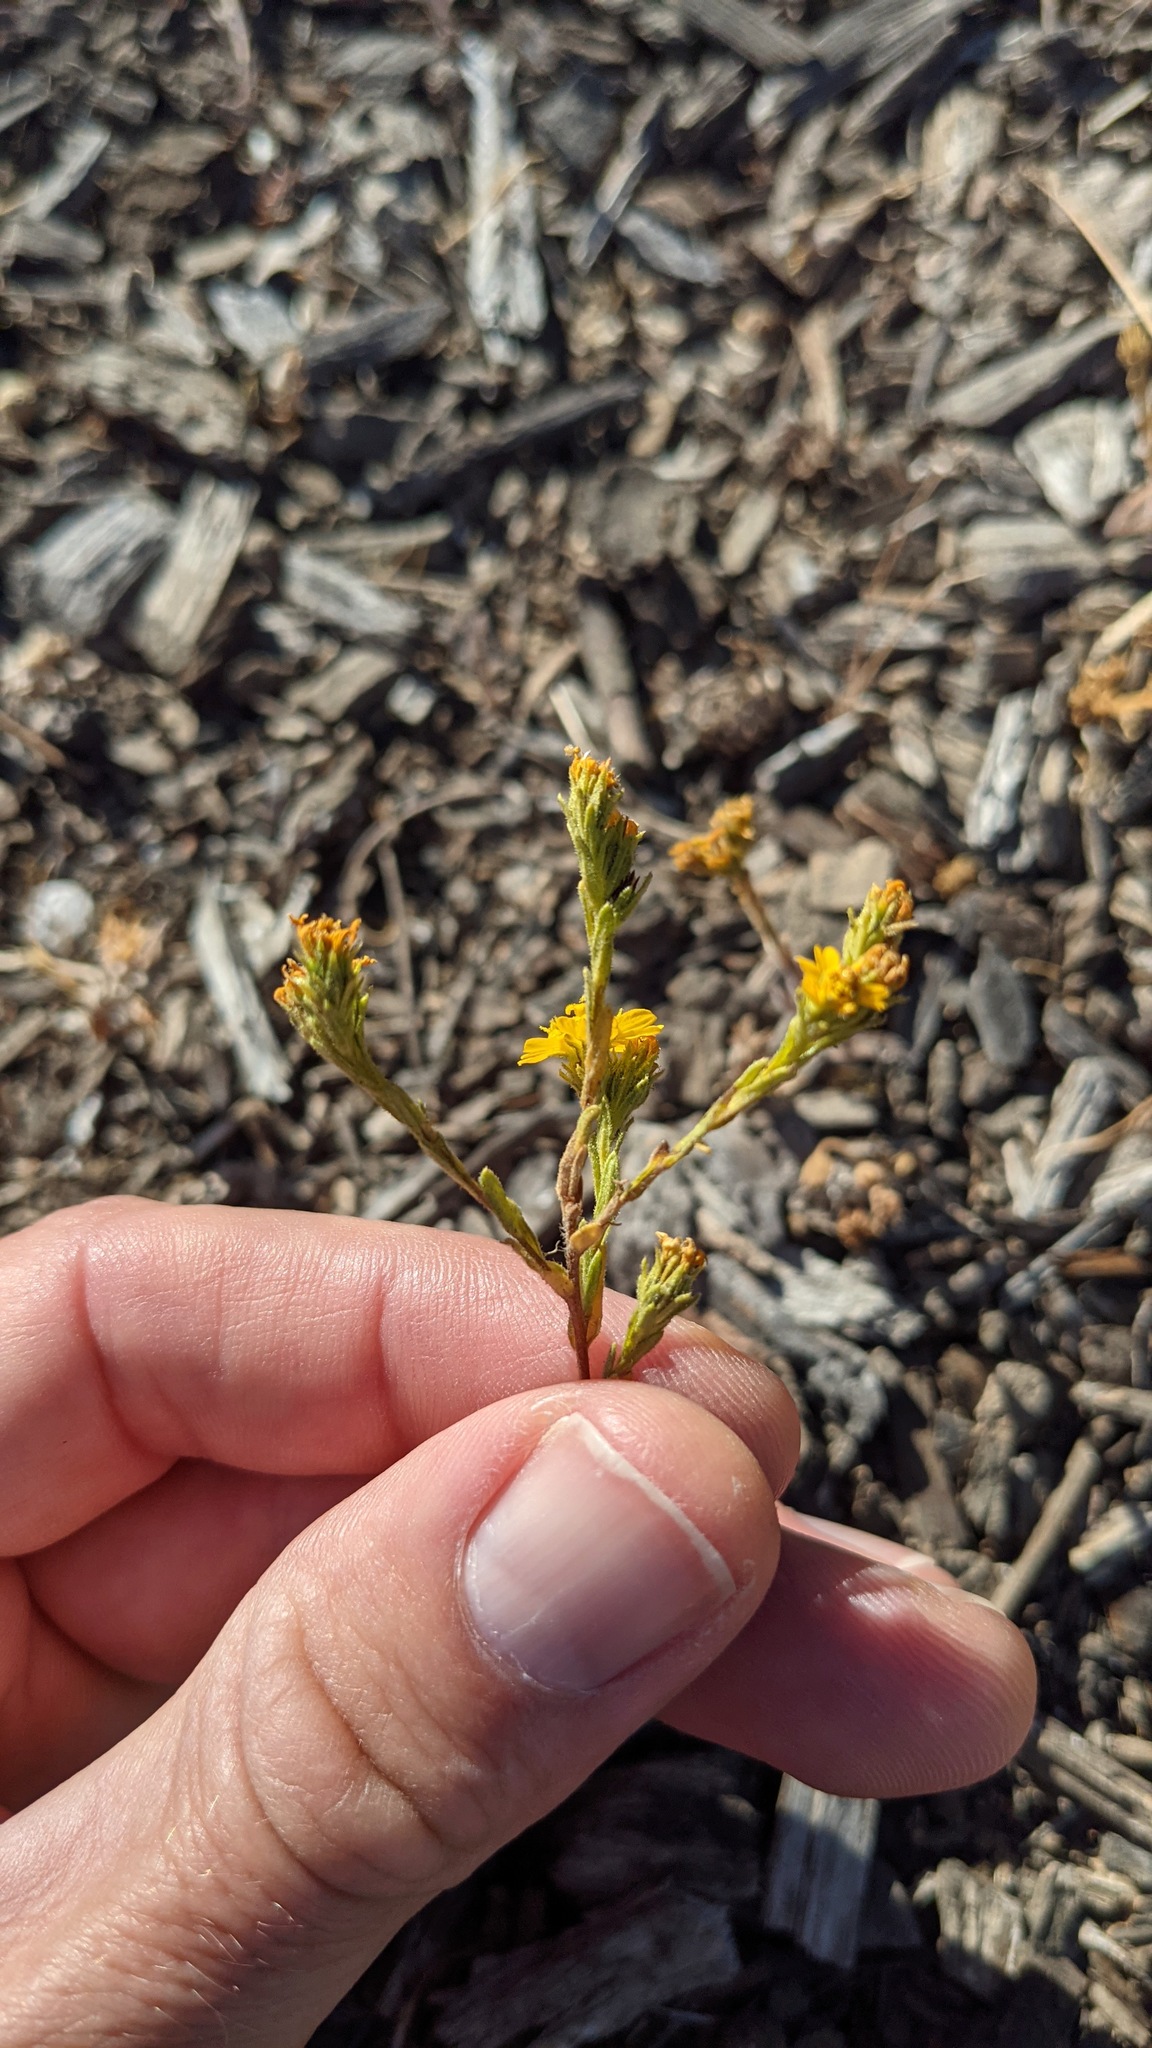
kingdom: Plantae
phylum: Tracheophyta
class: Magnoliopsida
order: Asterales
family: Asteraceae
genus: Deinandra
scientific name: Deinandra fasciculata
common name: Clustered tarweed
